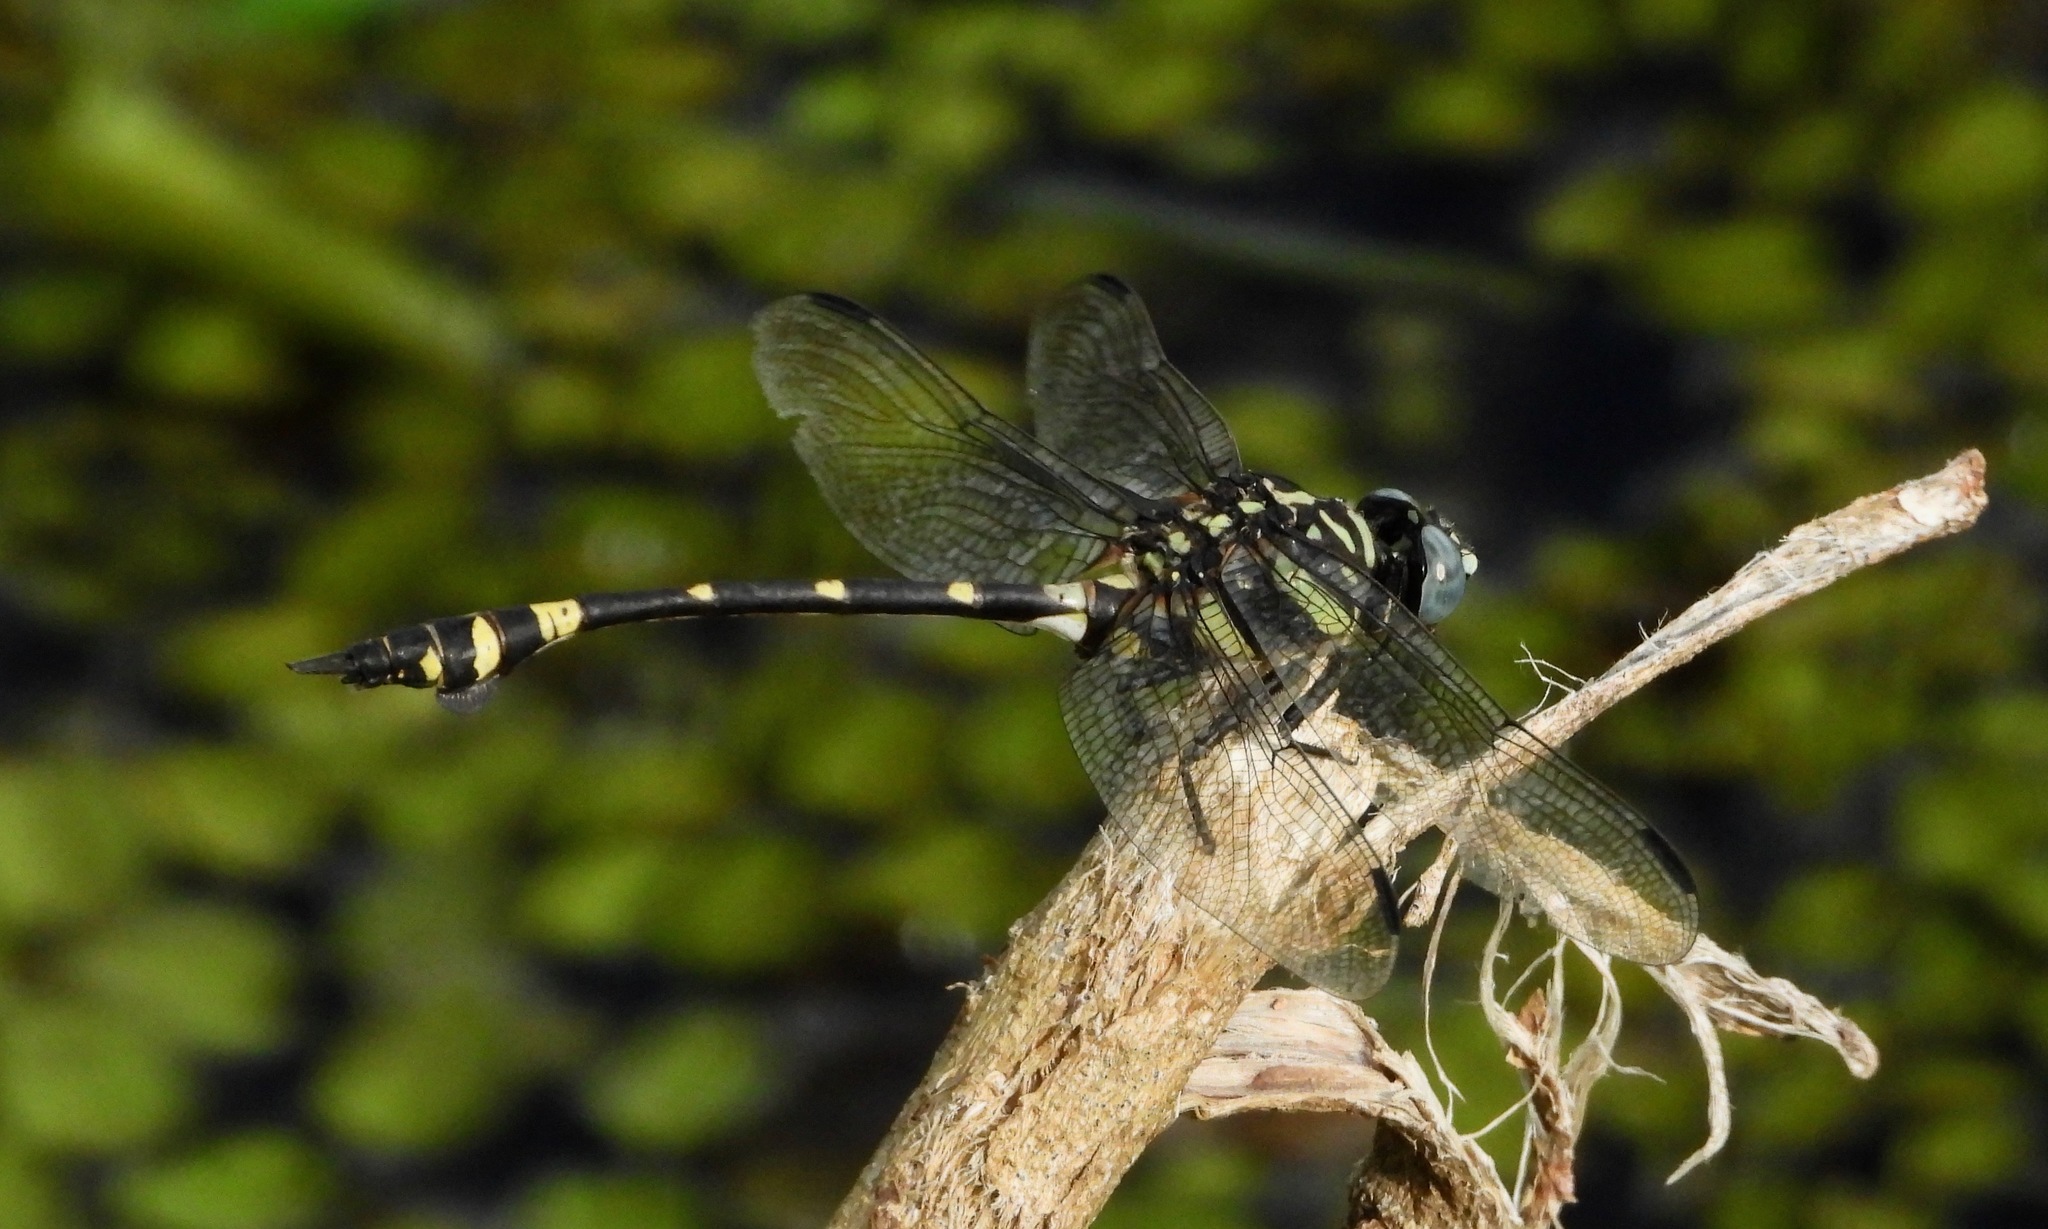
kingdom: Animalia
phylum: Arthropoda
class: Insecta
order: Odonata
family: Gomphidae
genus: Ictinogomphus
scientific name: Ictinogomphus rapax
